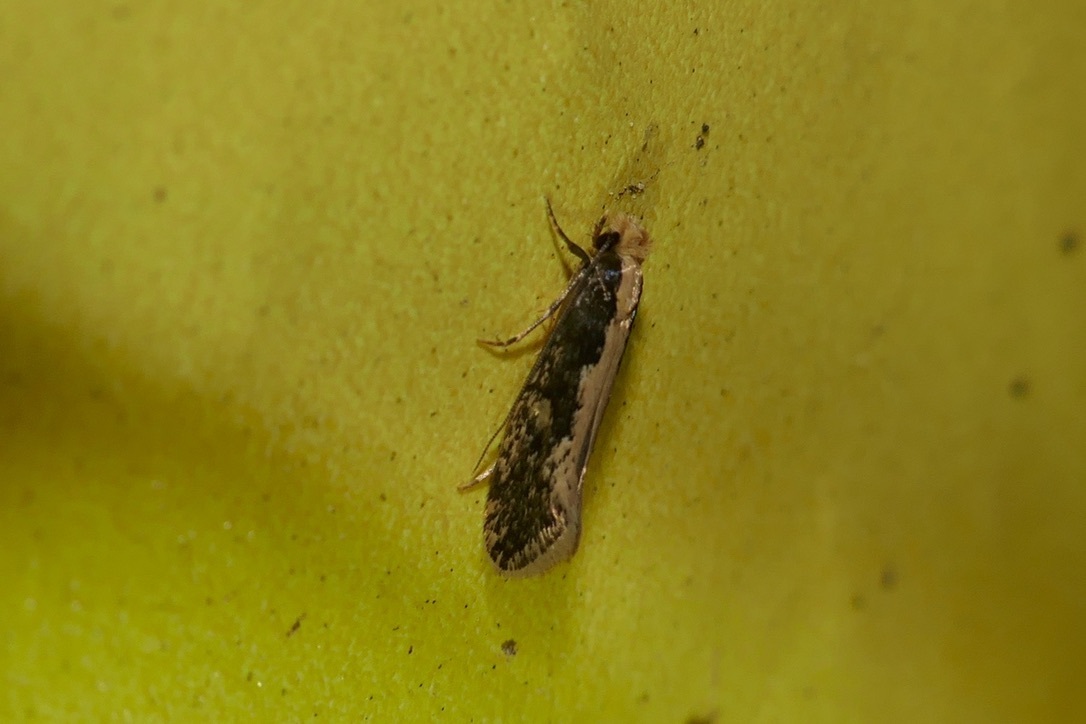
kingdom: Animalia
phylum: Arthropoda
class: Insecta
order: Lepidoptera
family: Tineidae
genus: Monopis
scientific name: Monopis crocicapitella
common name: Moth
